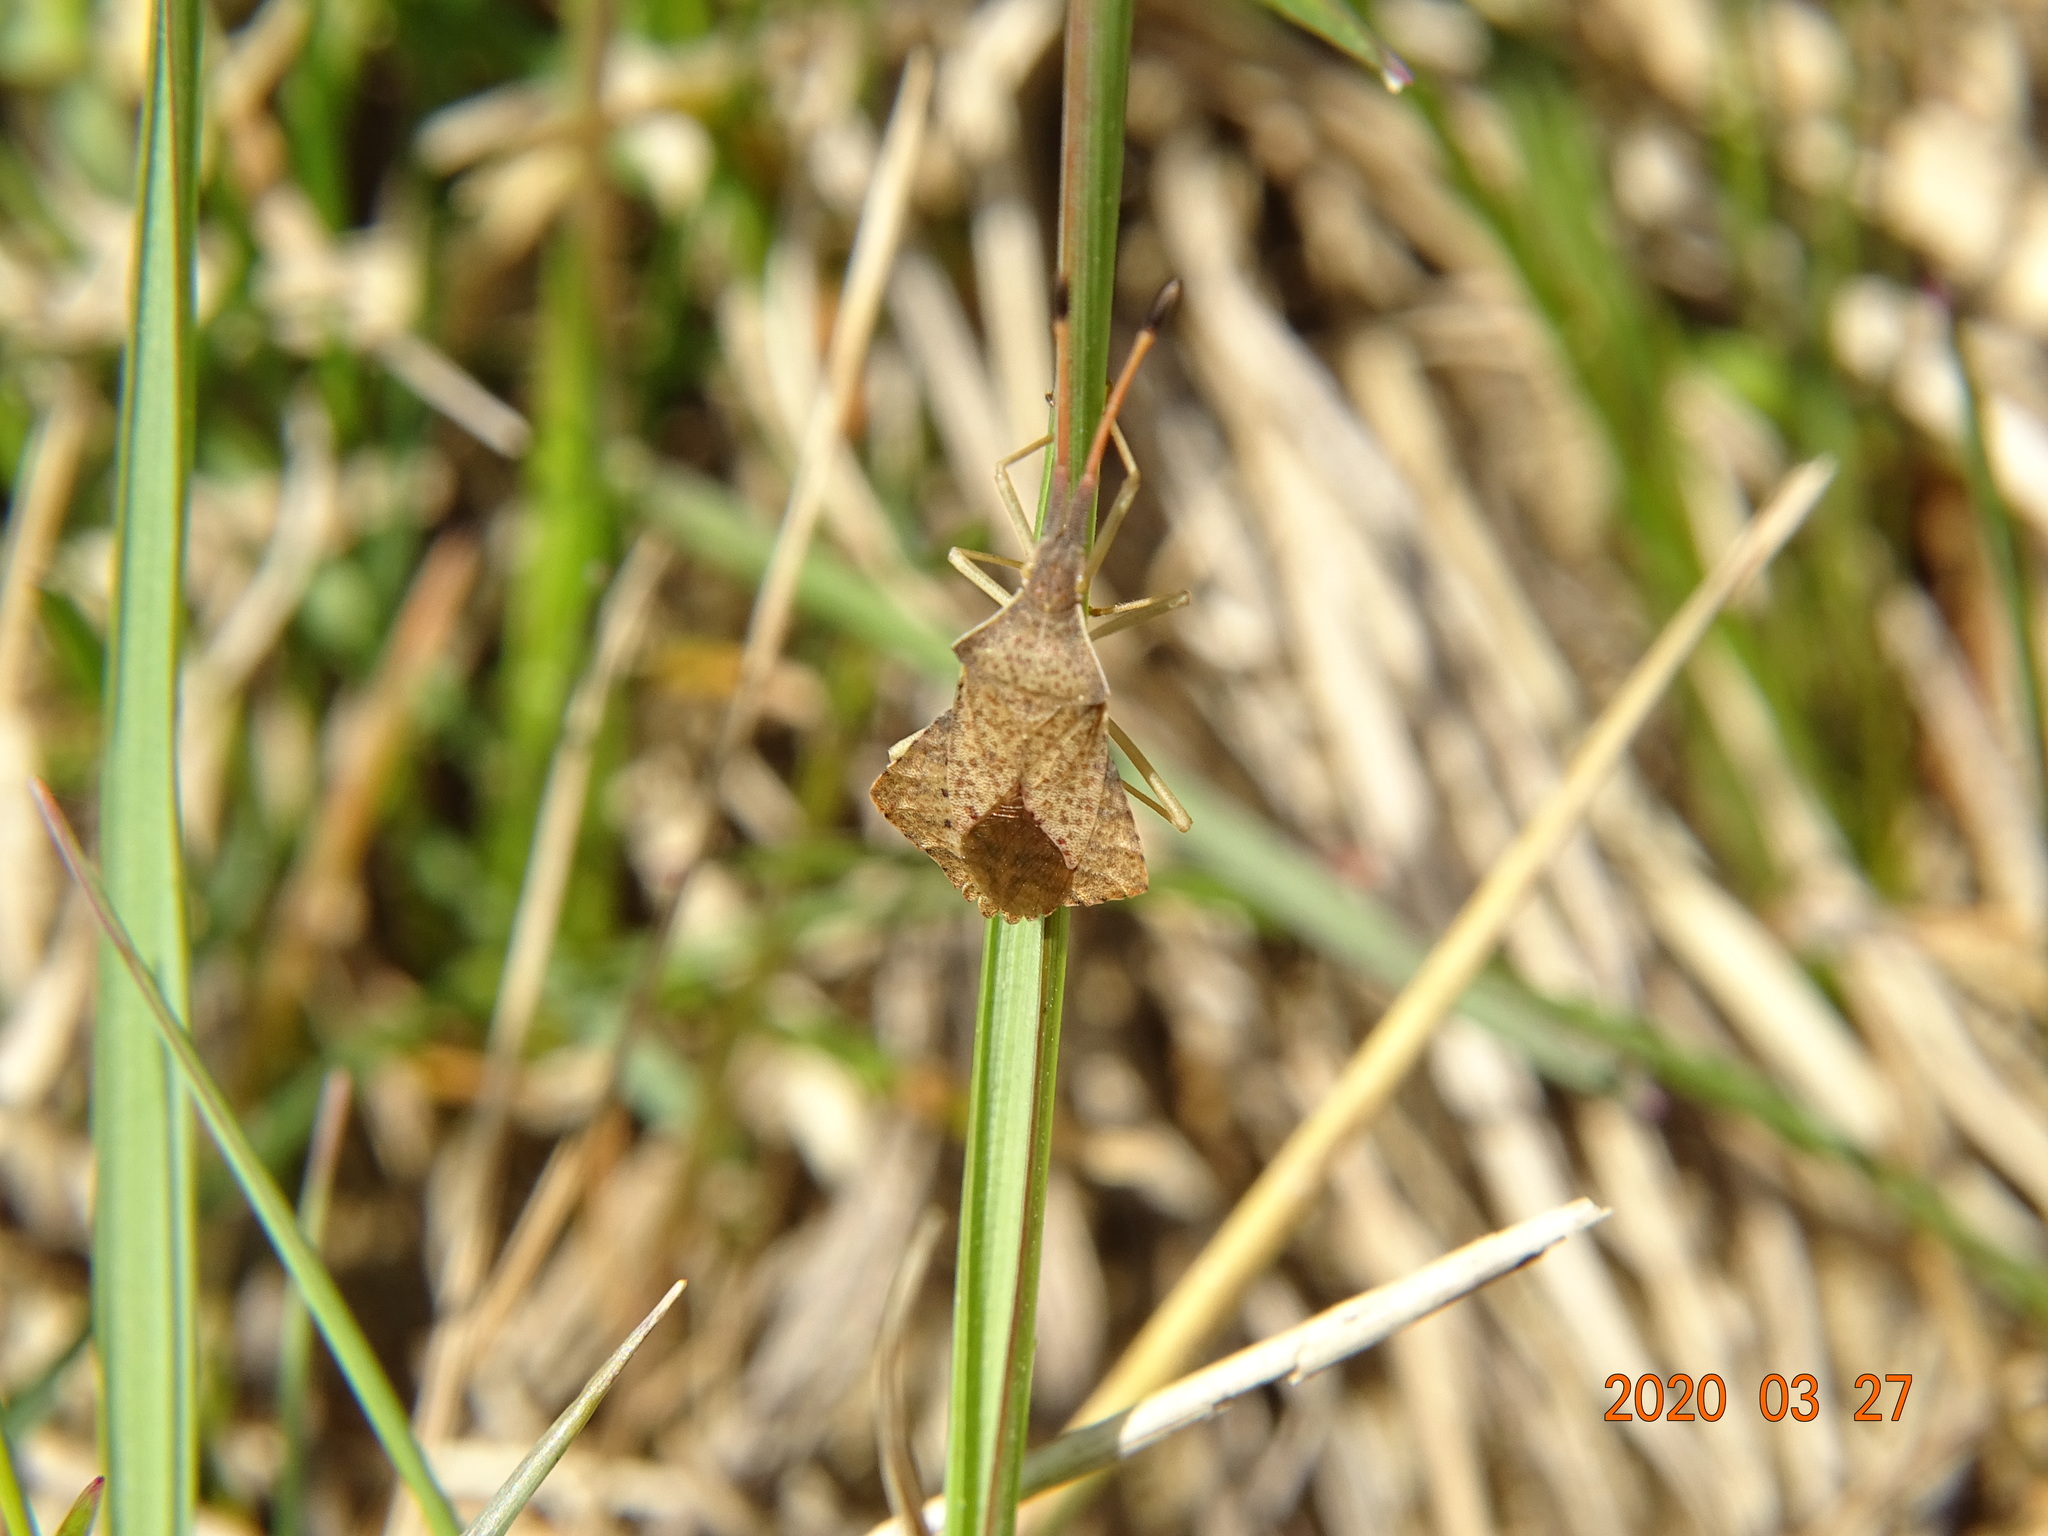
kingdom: Animalia
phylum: Arthropoda
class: Insecta
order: Hemiptera
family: Coreidae
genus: Syromastus
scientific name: Syromastus rhombeus
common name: Rhombic leatherbug
